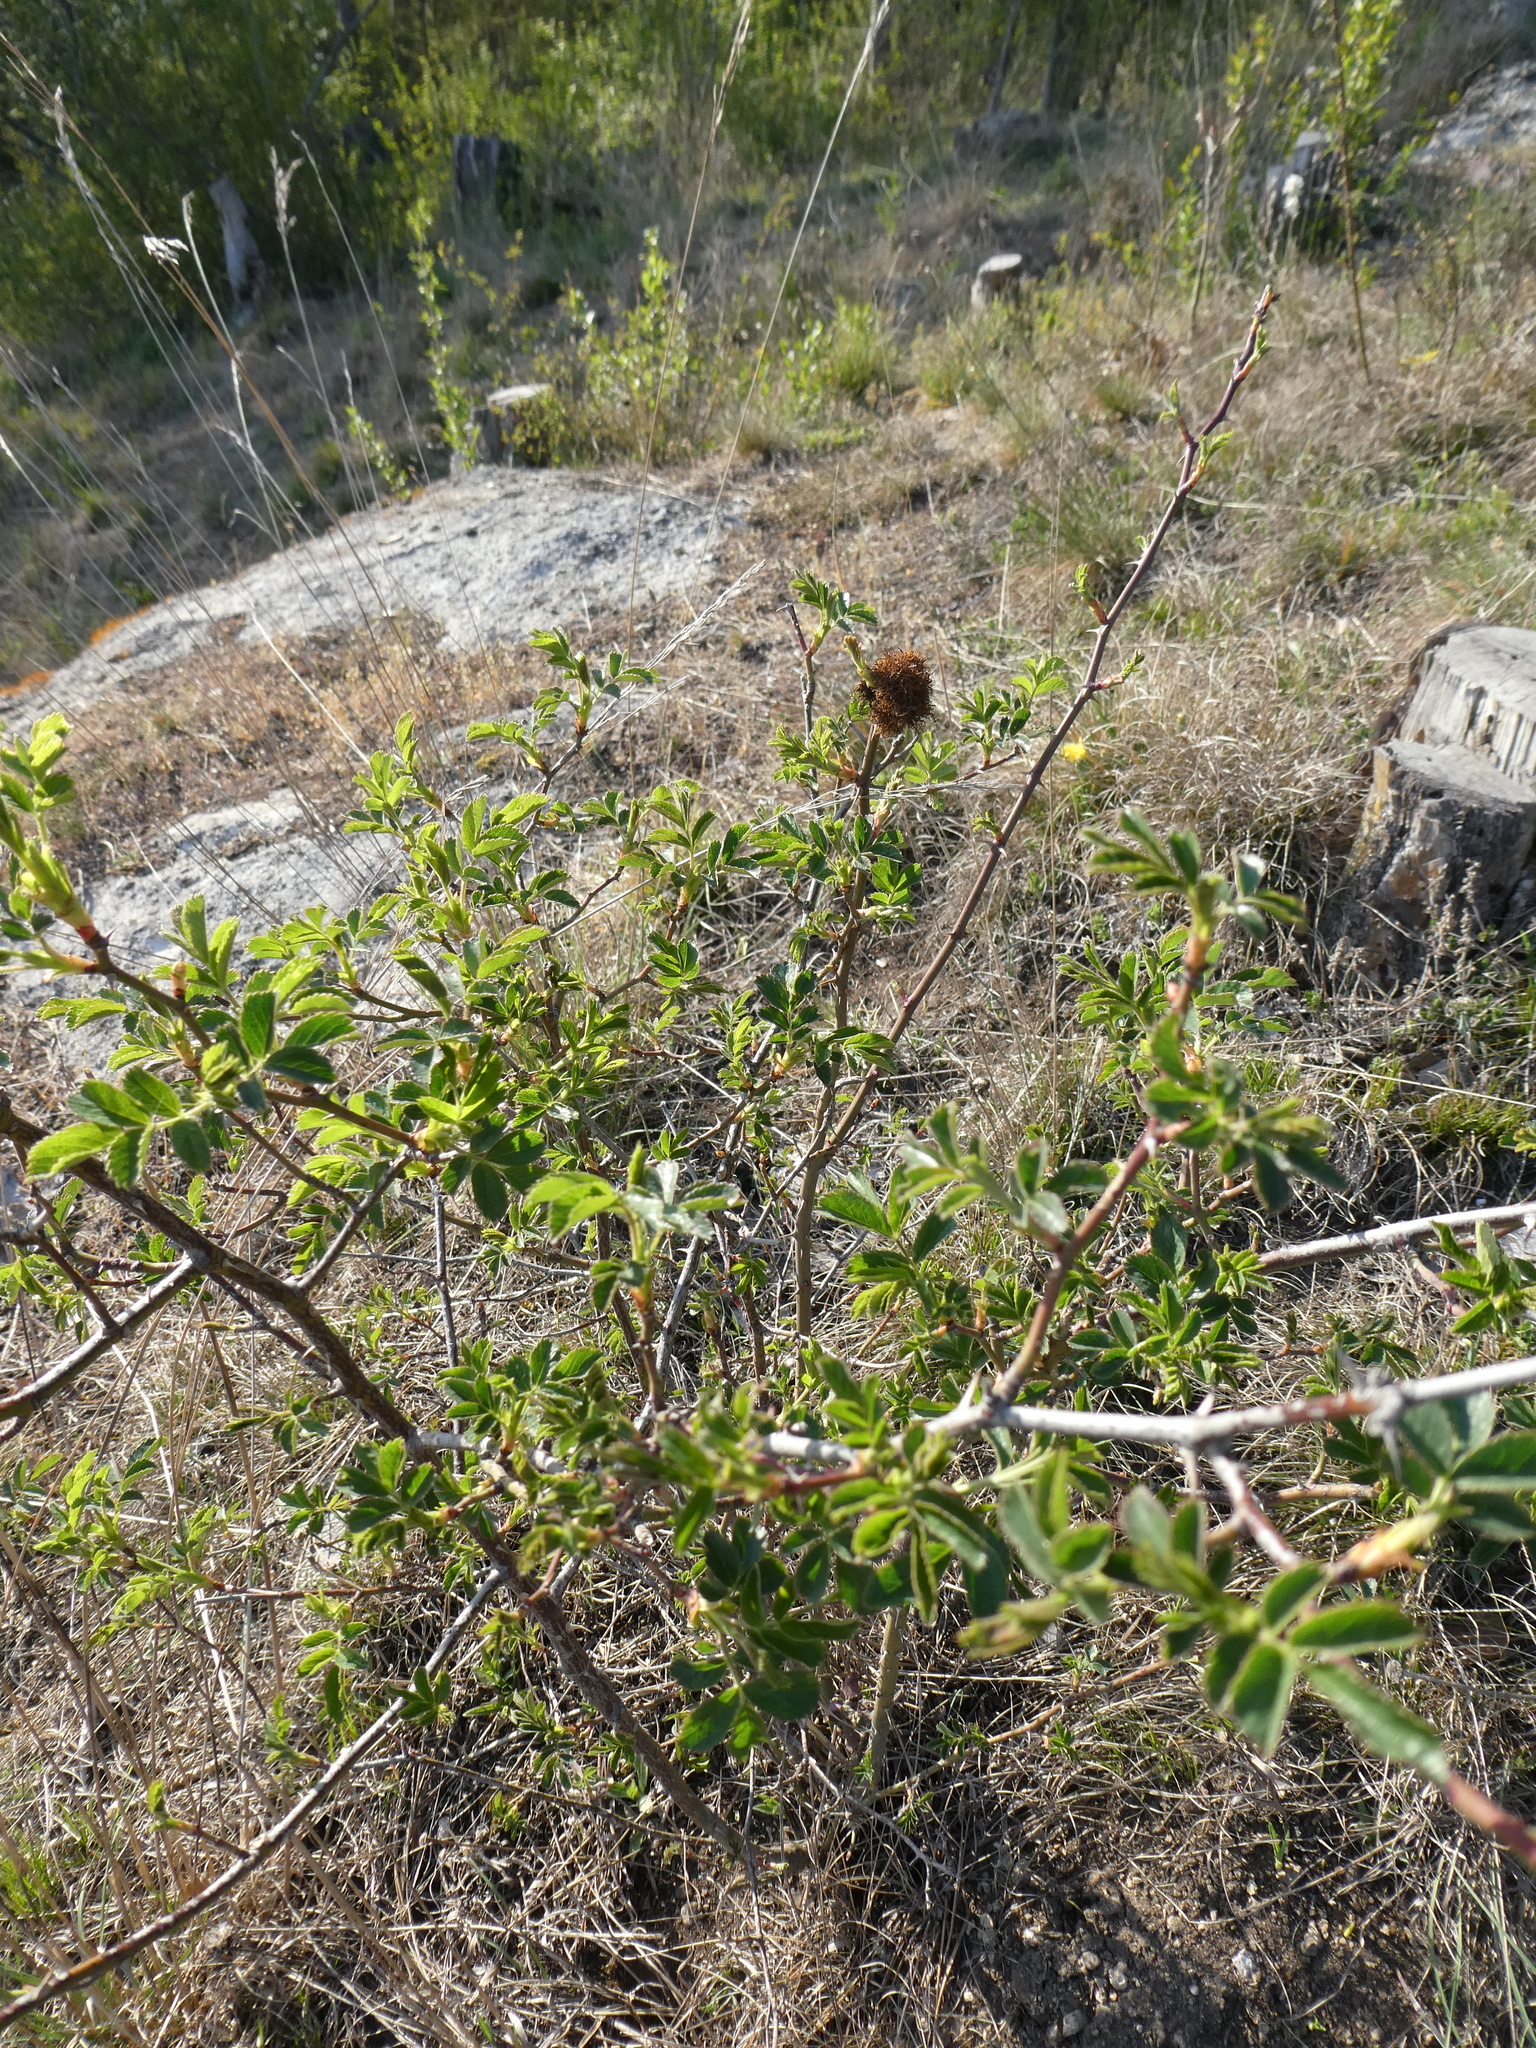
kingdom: Animalia
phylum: Arthropoda
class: Insecta
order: Hymenoptera
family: Cynipidae
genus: Diplolepis
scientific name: Diplolepis rosae
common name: Bedeguar gall
